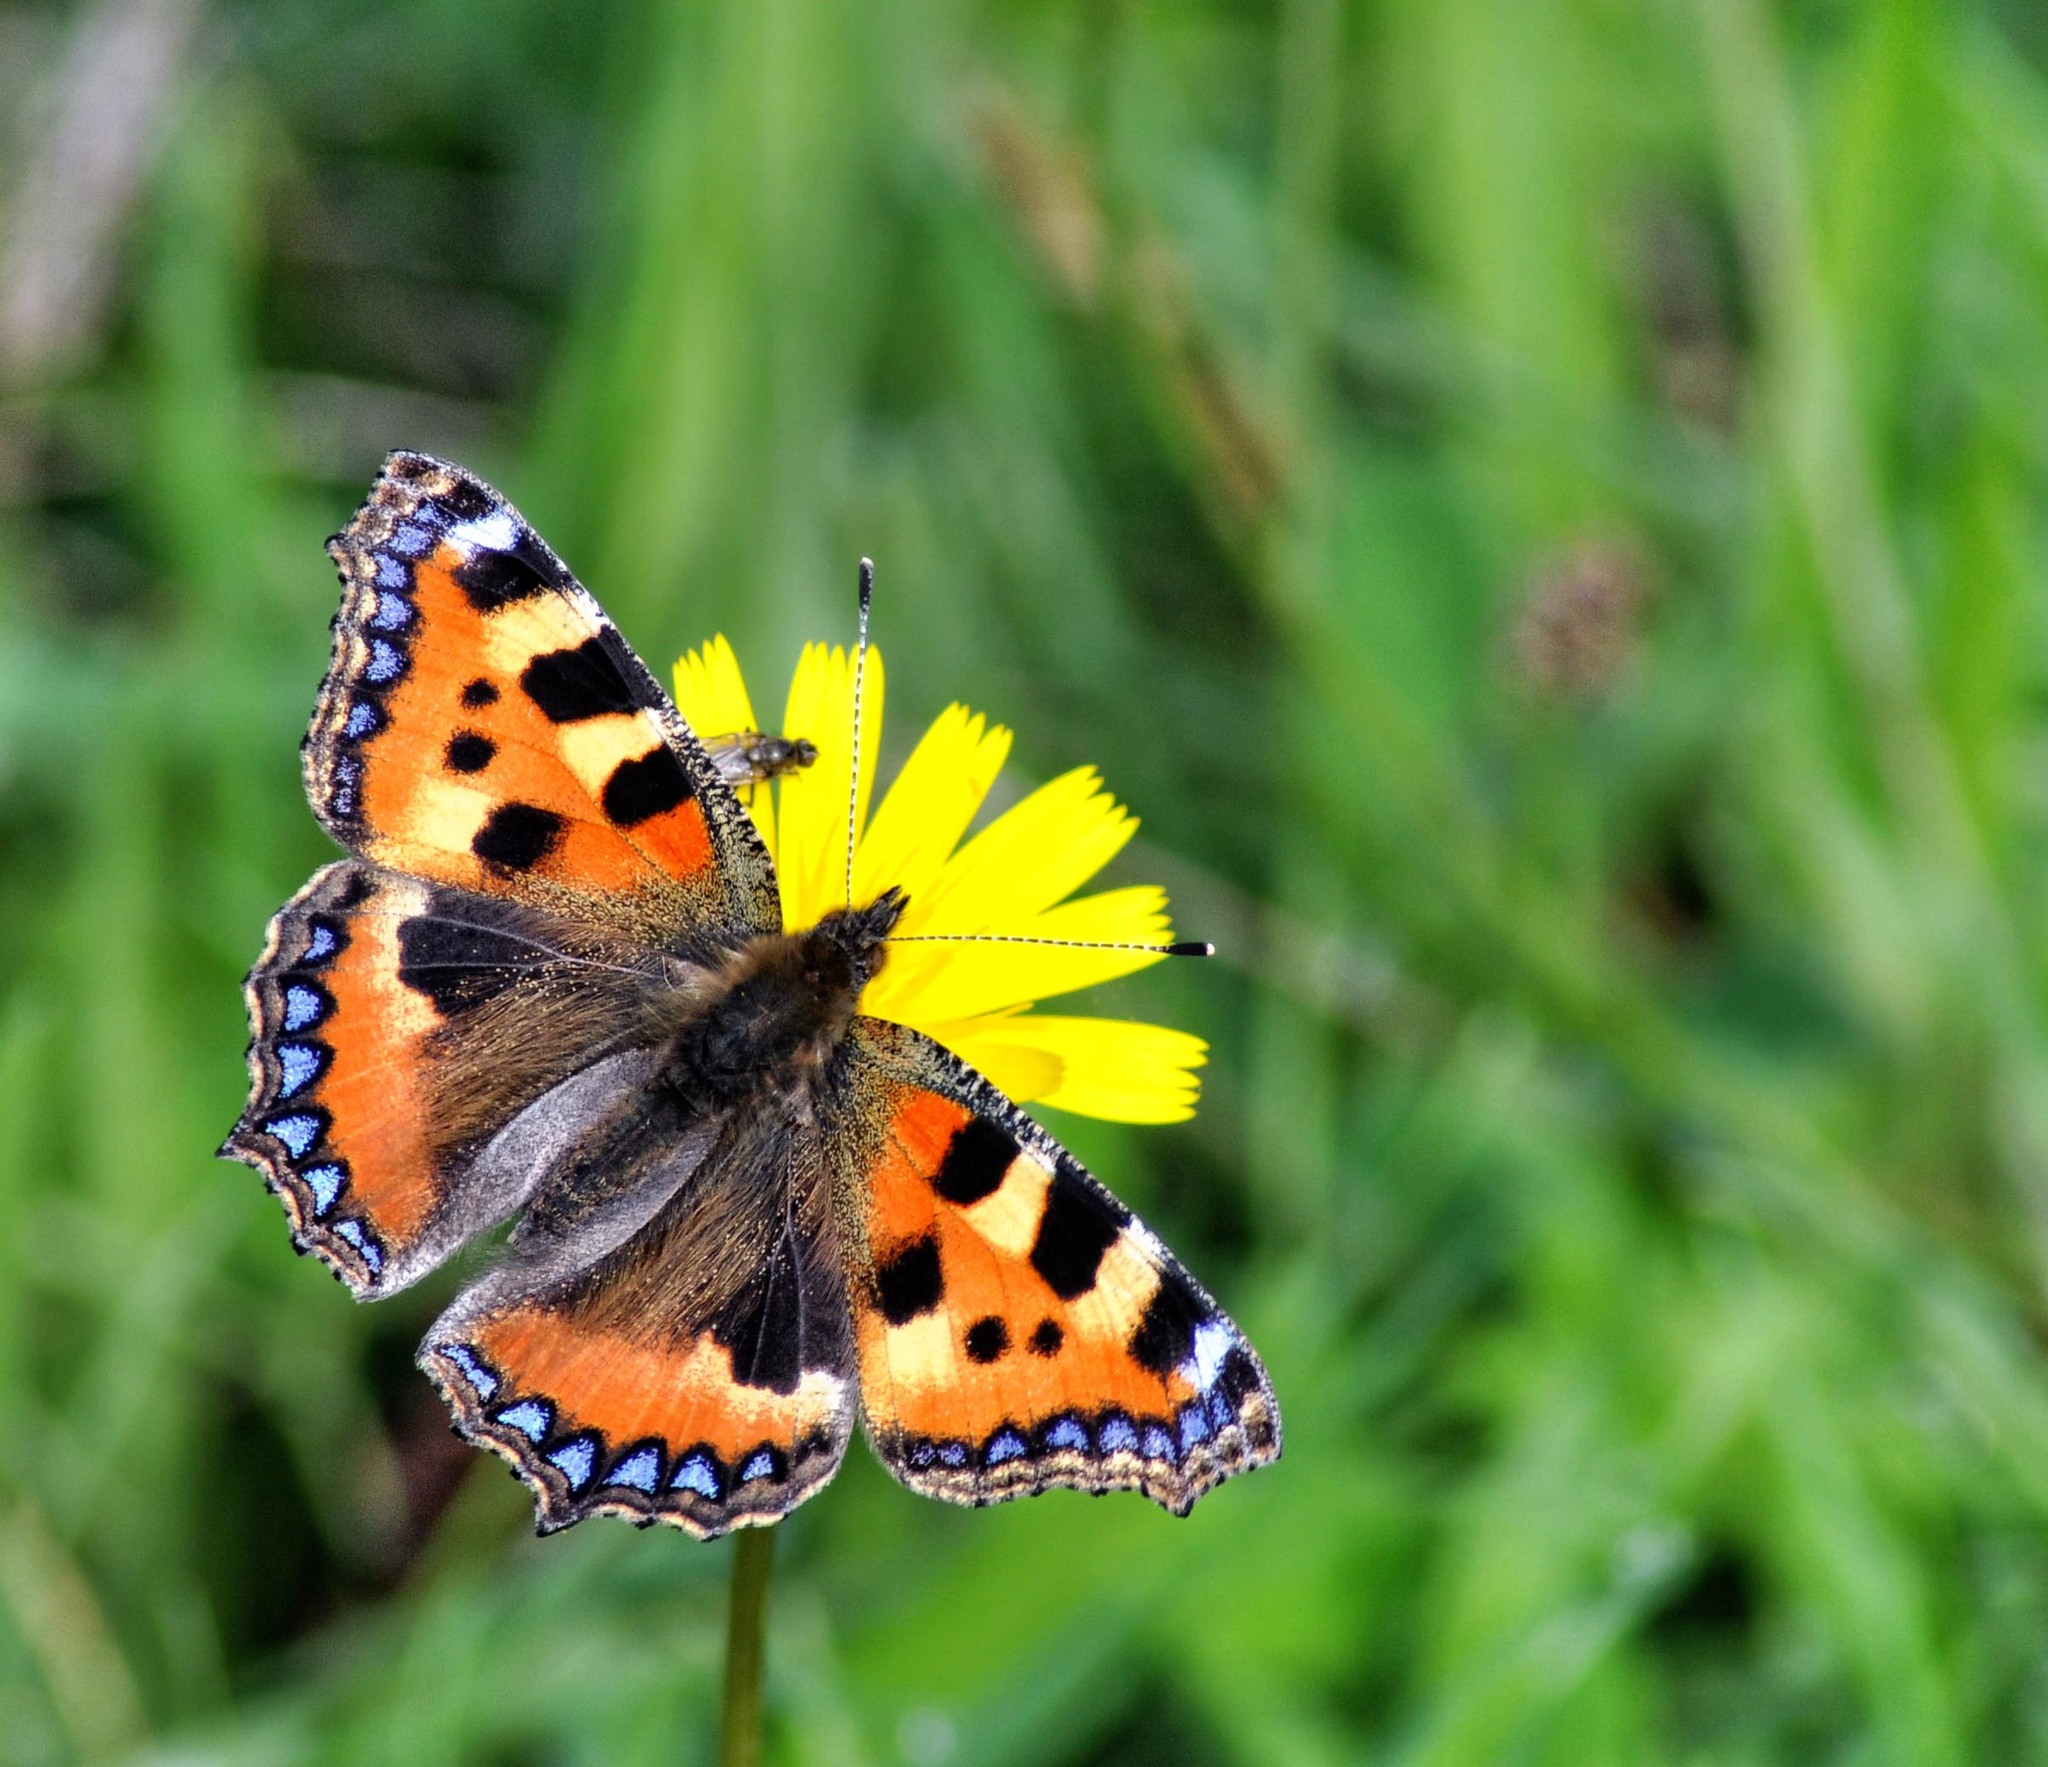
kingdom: Animalia
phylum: Arthropoda
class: Insecta
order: Lepidoptera
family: Nymphalidae
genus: Aglais
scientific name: Aglais urticae
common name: Small tortoiseshell
